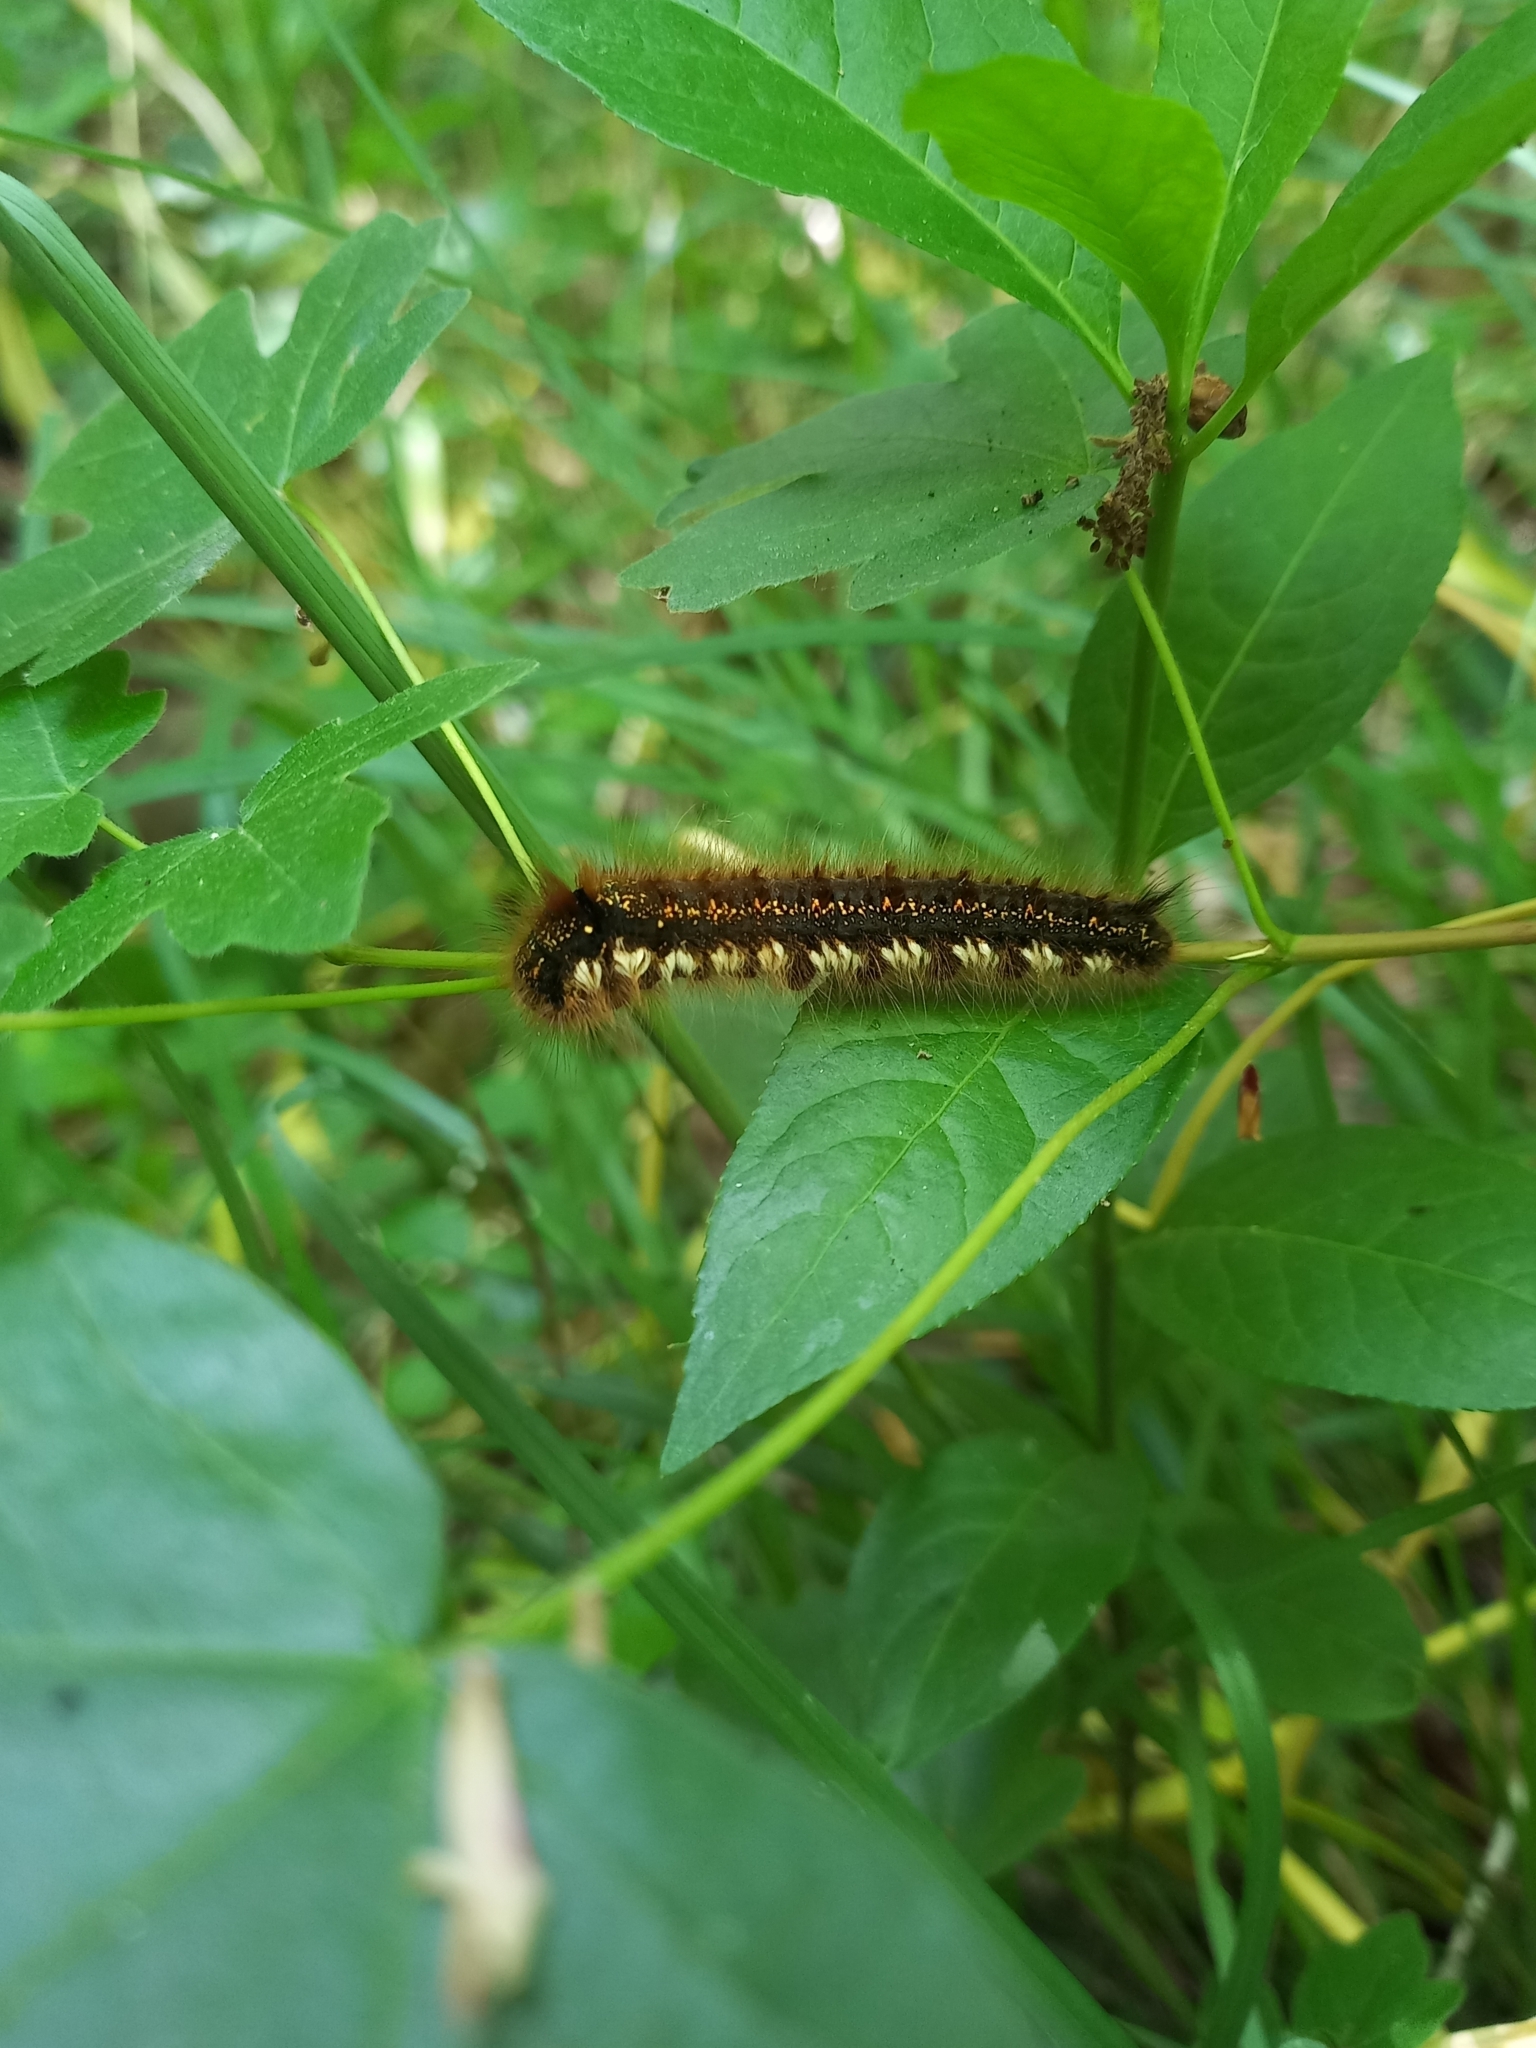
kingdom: Animalia
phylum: Arthropoda
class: Insecta
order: Lepidoptera
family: Lasiocampidae
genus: Euthrix
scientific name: Euthrix potatoria
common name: Drinker
